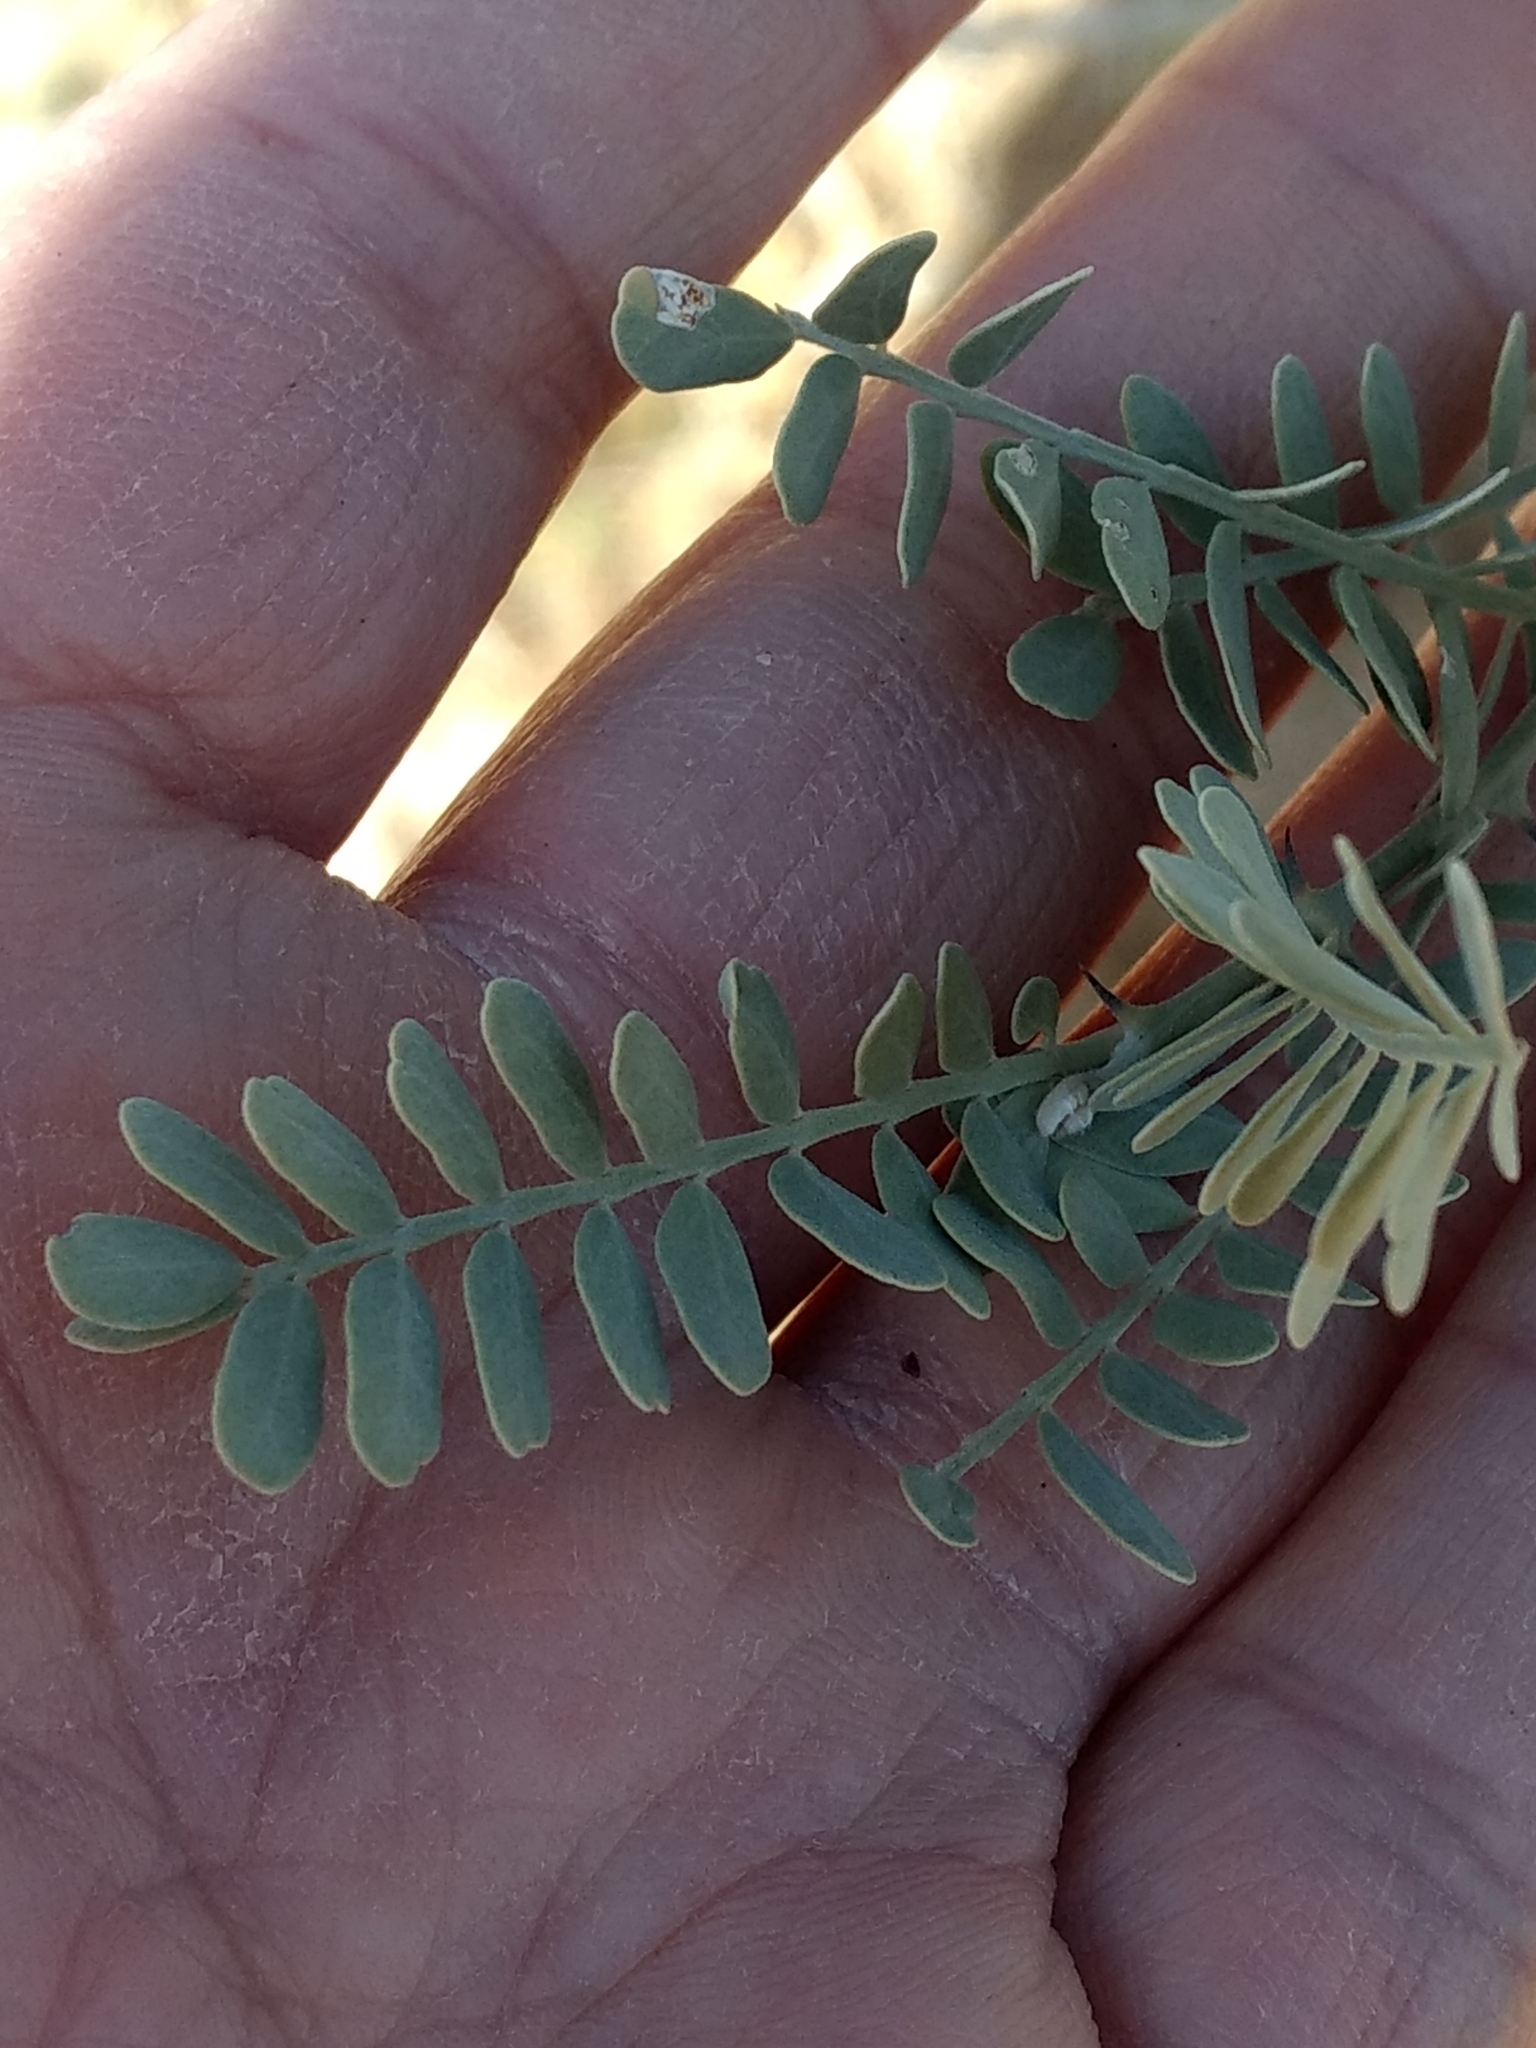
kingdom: Plantae
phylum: Tracheophyta
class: Magnoliopsida
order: Fabales
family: Fabaceae
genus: Olneya
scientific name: Olneya tesota
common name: Desert ironwood
